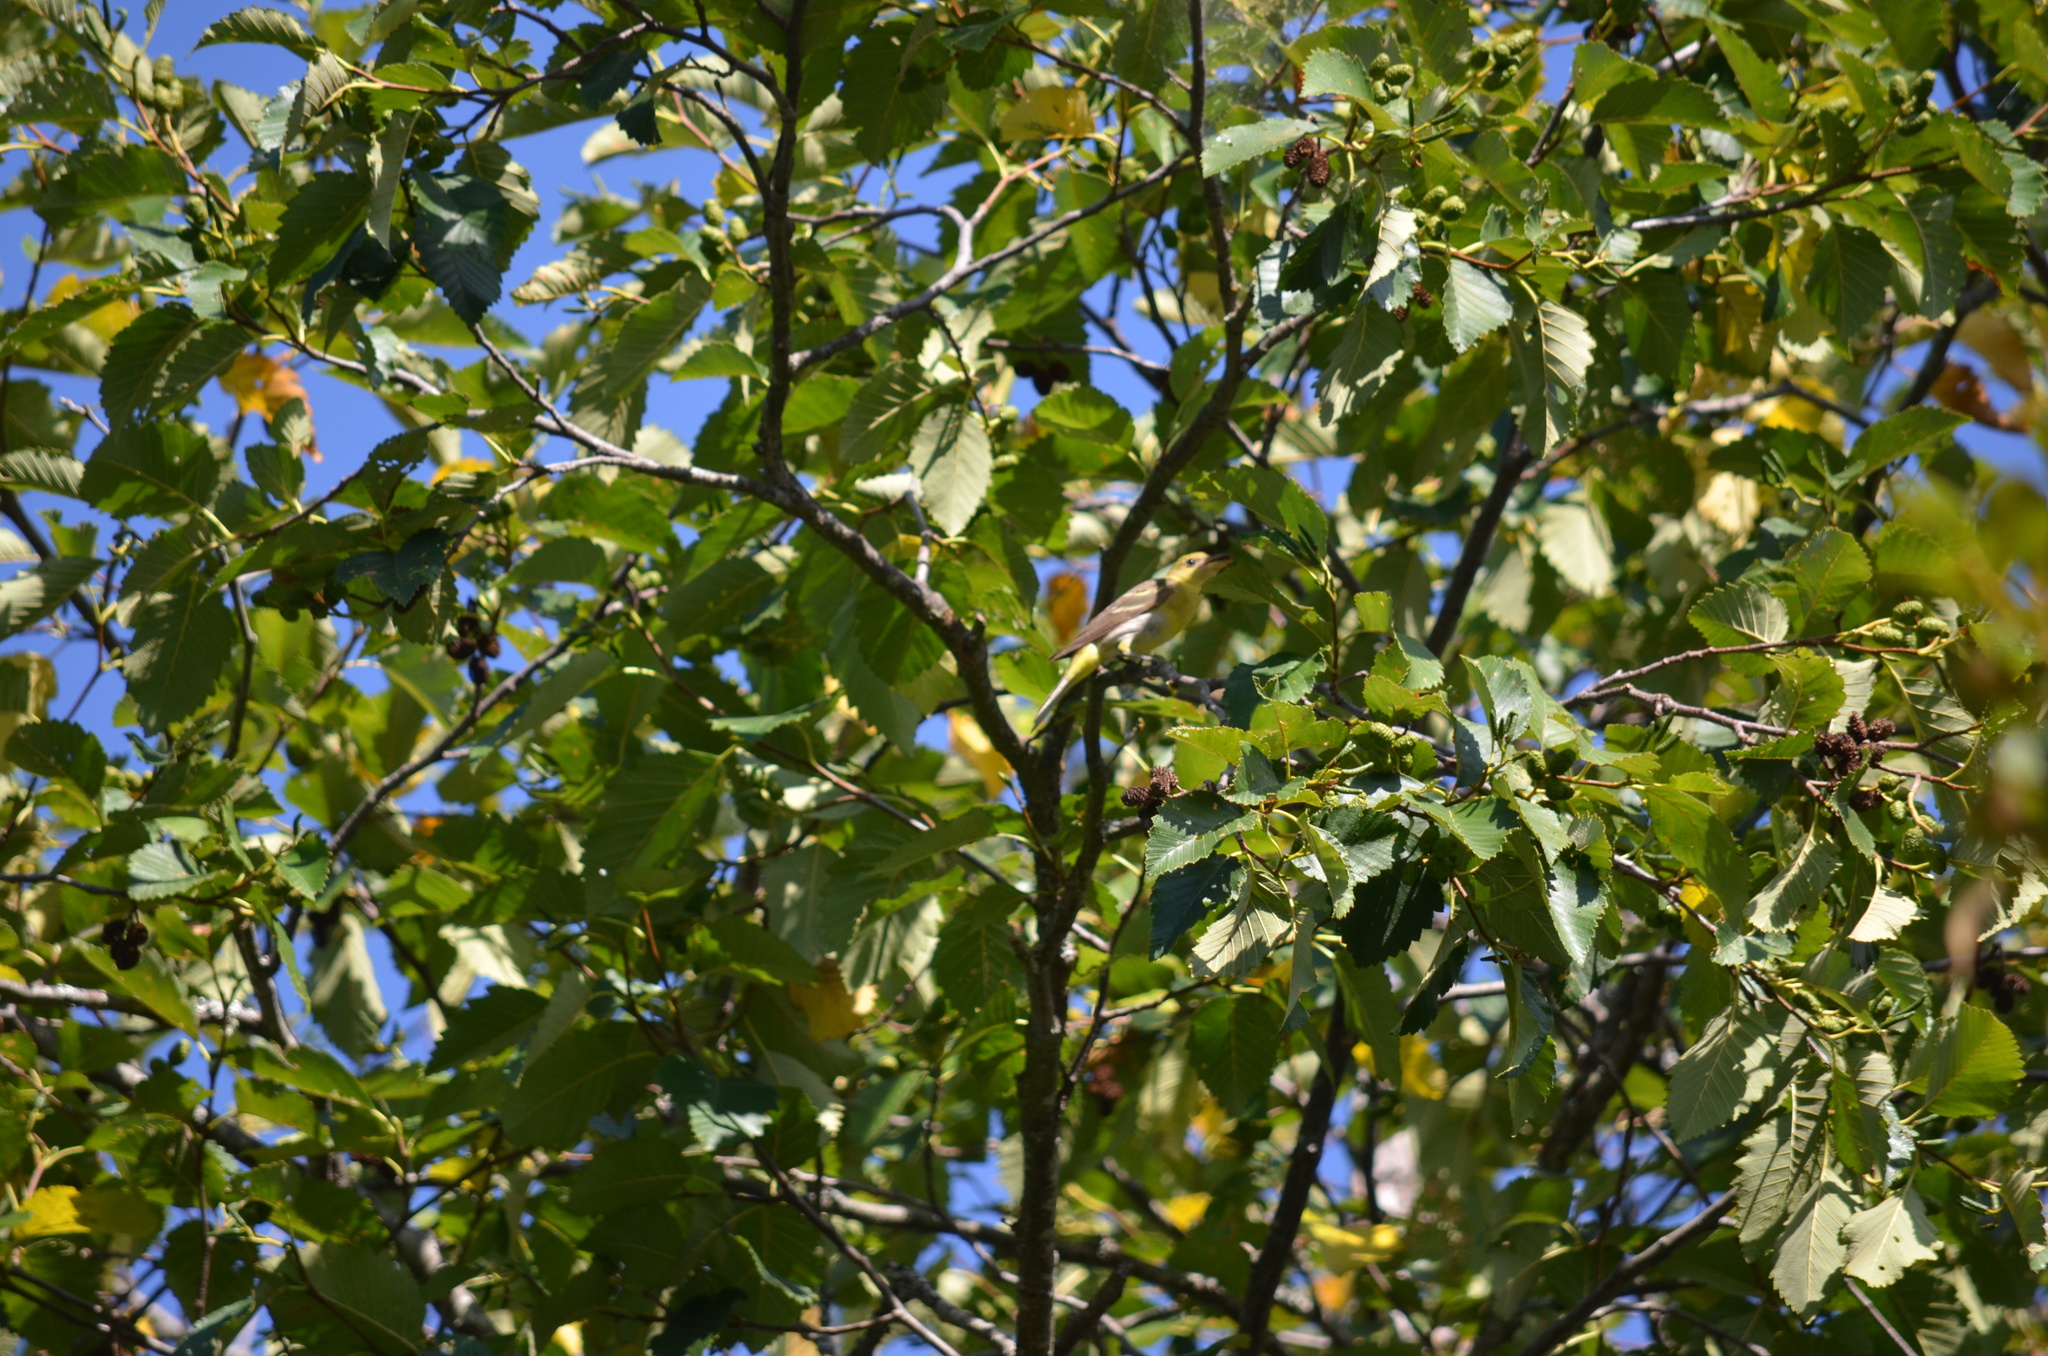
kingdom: Animalia
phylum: Chordata
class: Aves
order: Passeriformes
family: Cardinalidae
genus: Piranga
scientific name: Piranga ludoviciana
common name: Western tanager
